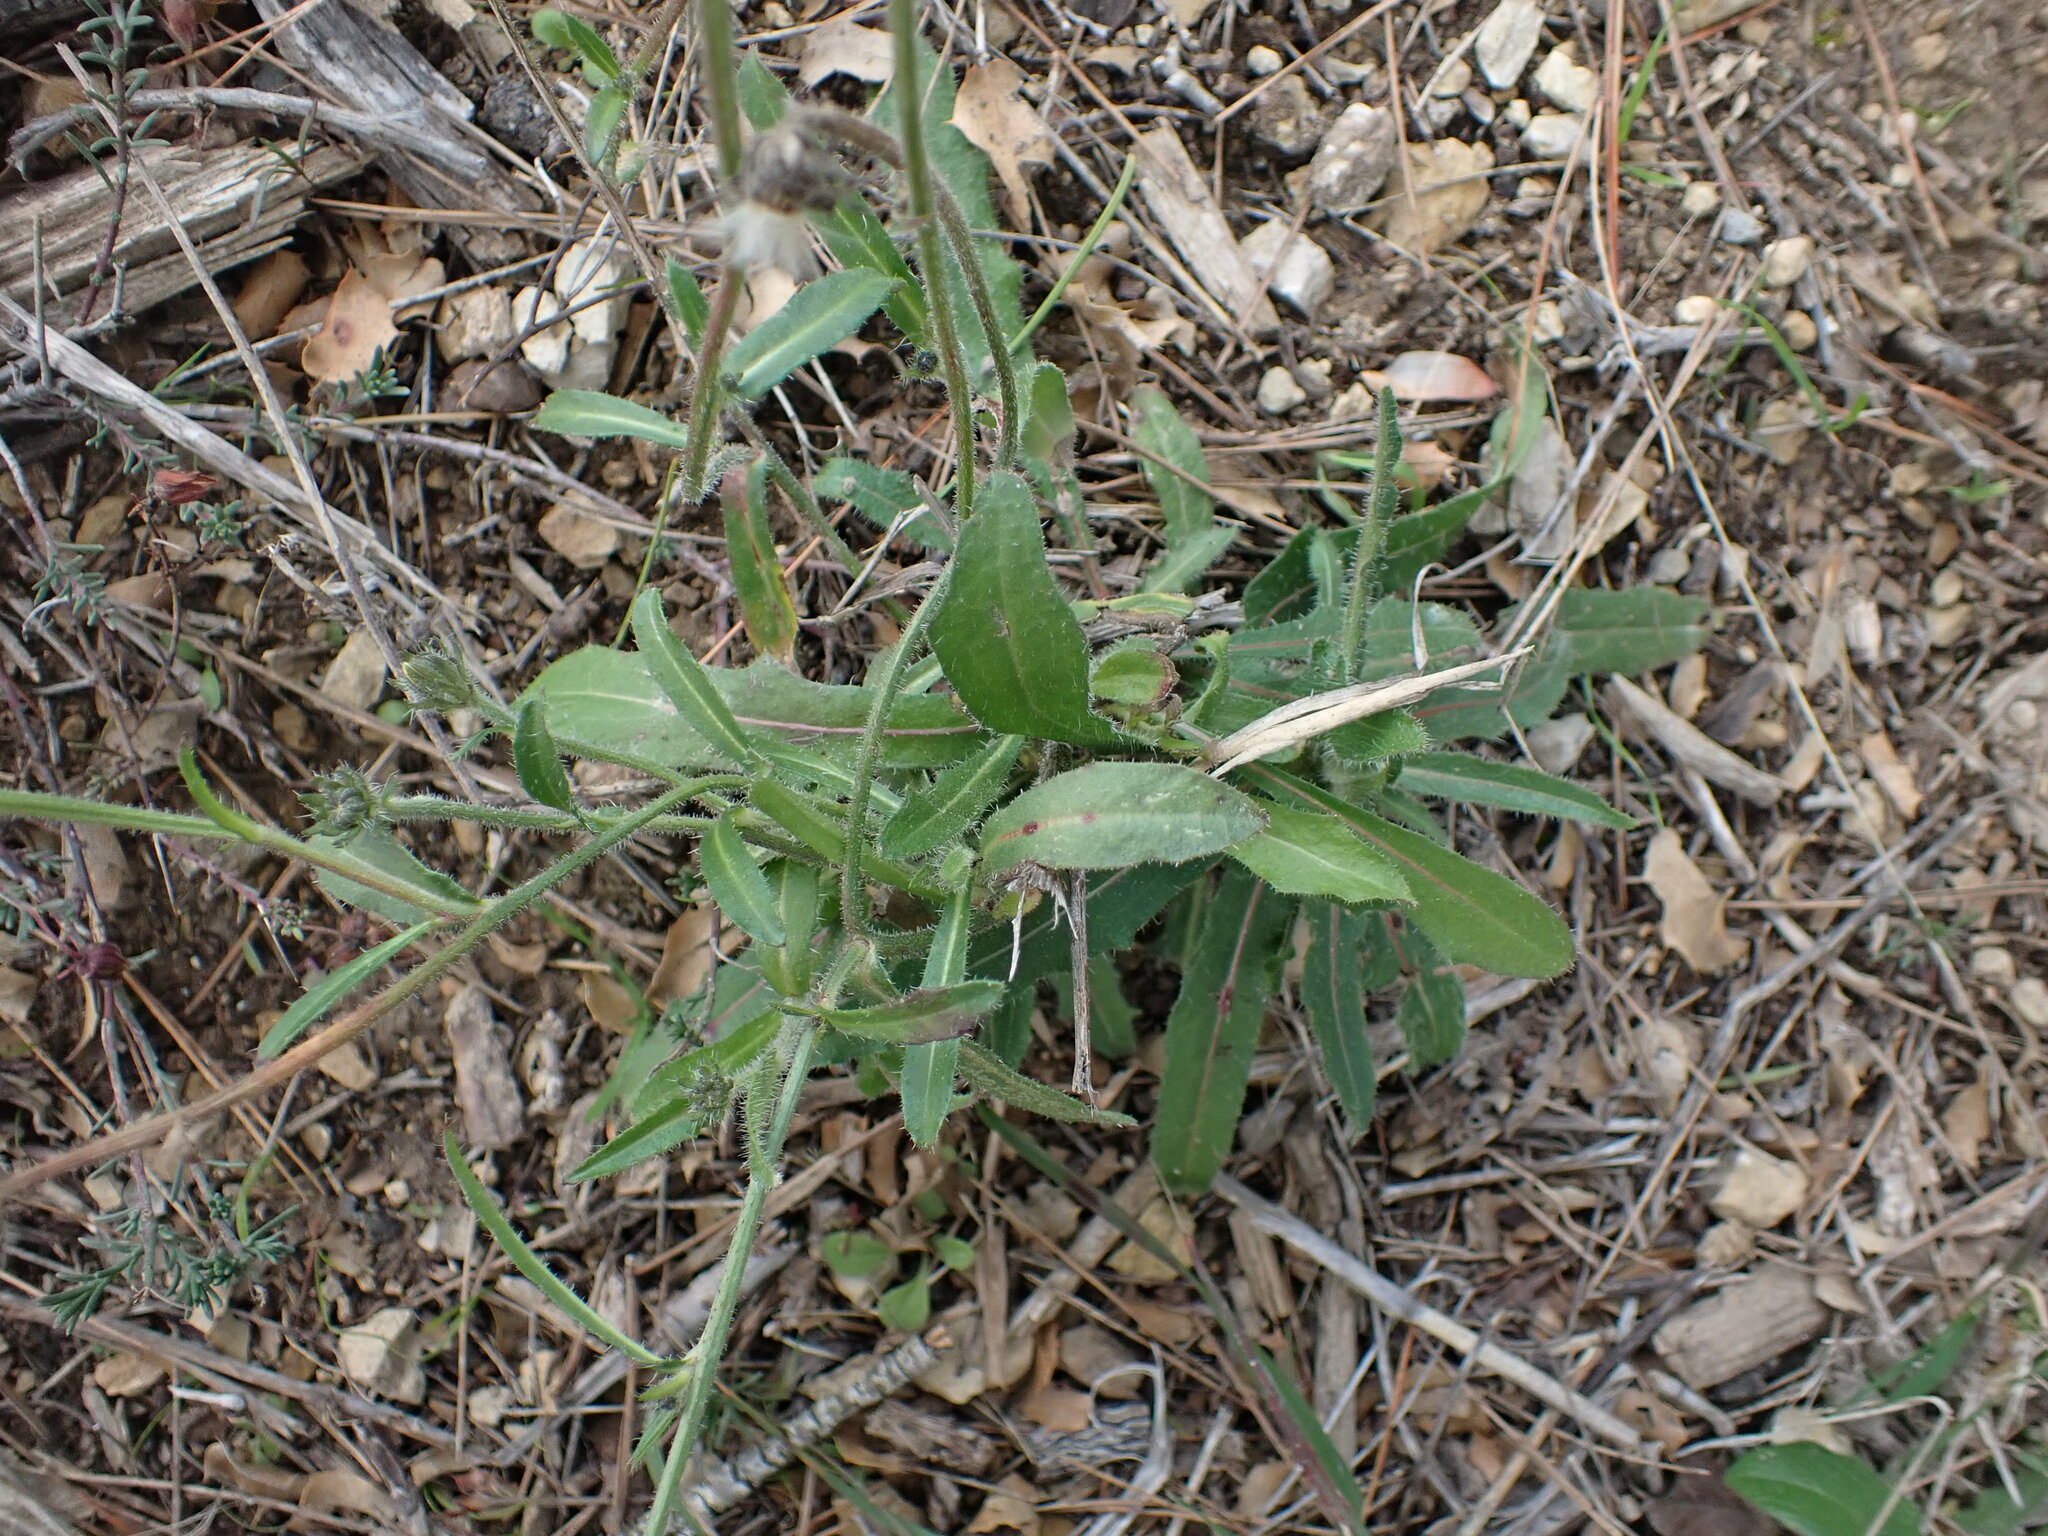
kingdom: Plantae
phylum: Tracheophyta
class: Magnoliopsida
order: Asterales
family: Asteraceae
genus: Picris
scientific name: Picris hieracioides
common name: Hawkweed oxtongue
